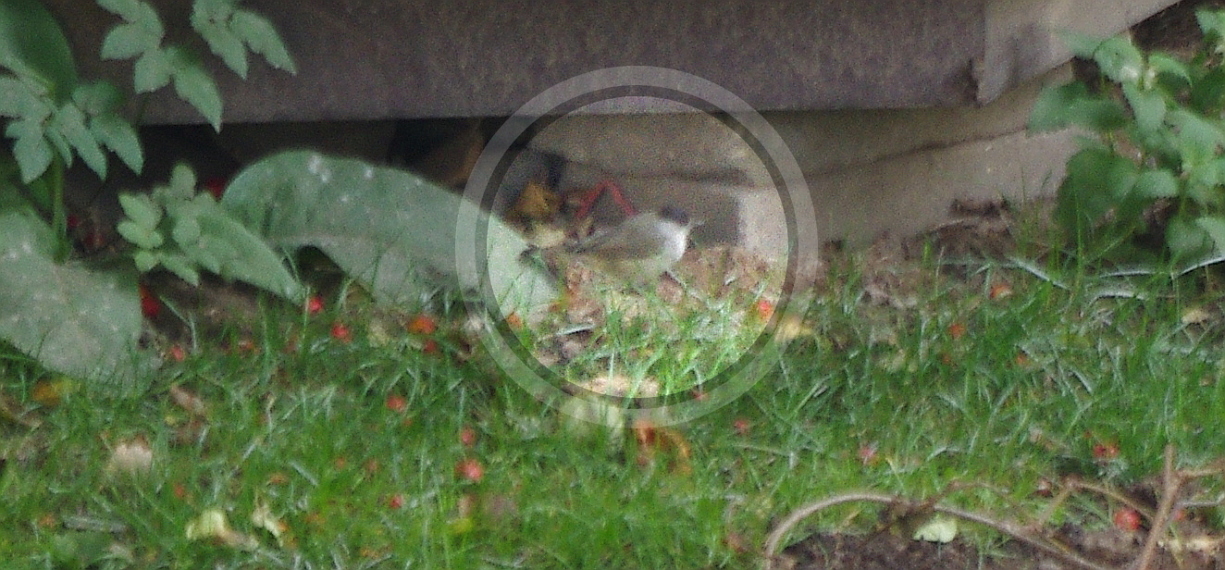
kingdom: Animalia
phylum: Chordata
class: Aves
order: Passeriformes
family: Sylviidae
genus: Sylvia
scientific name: Sylvia atricapilla
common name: Eurasian blackcap
